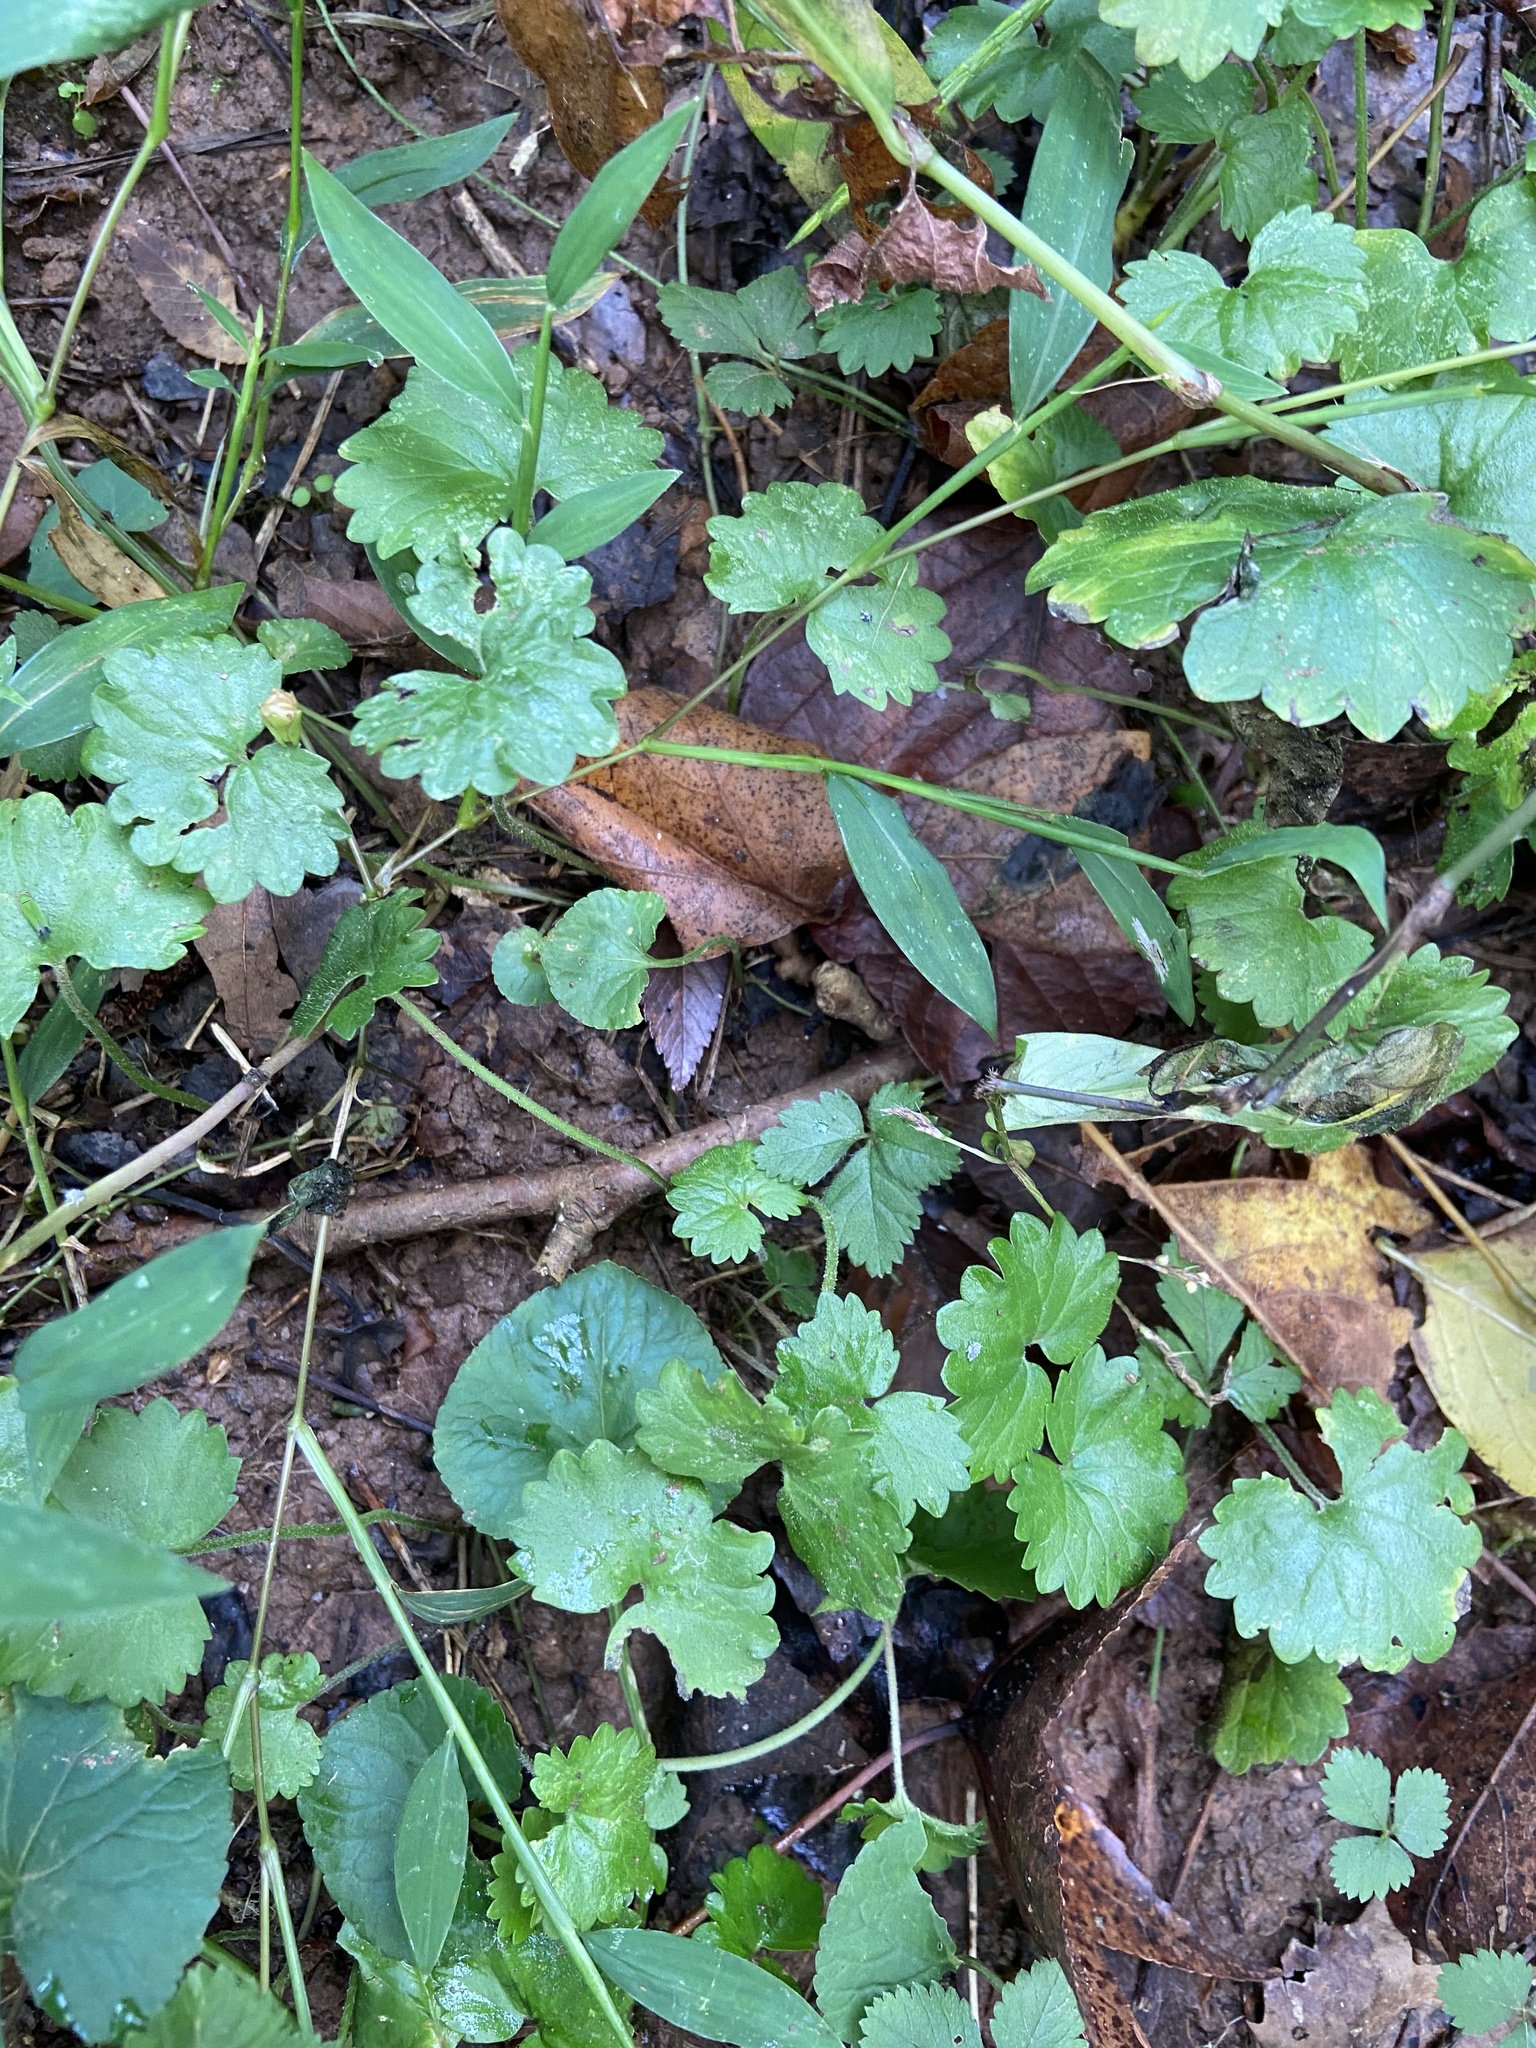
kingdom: Plantae
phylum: Tracheophyta
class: Magnoliopsida
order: Lamiales
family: Lamiaceae
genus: Glechoma
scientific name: Glechoma hederacea
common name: Ground ivy
